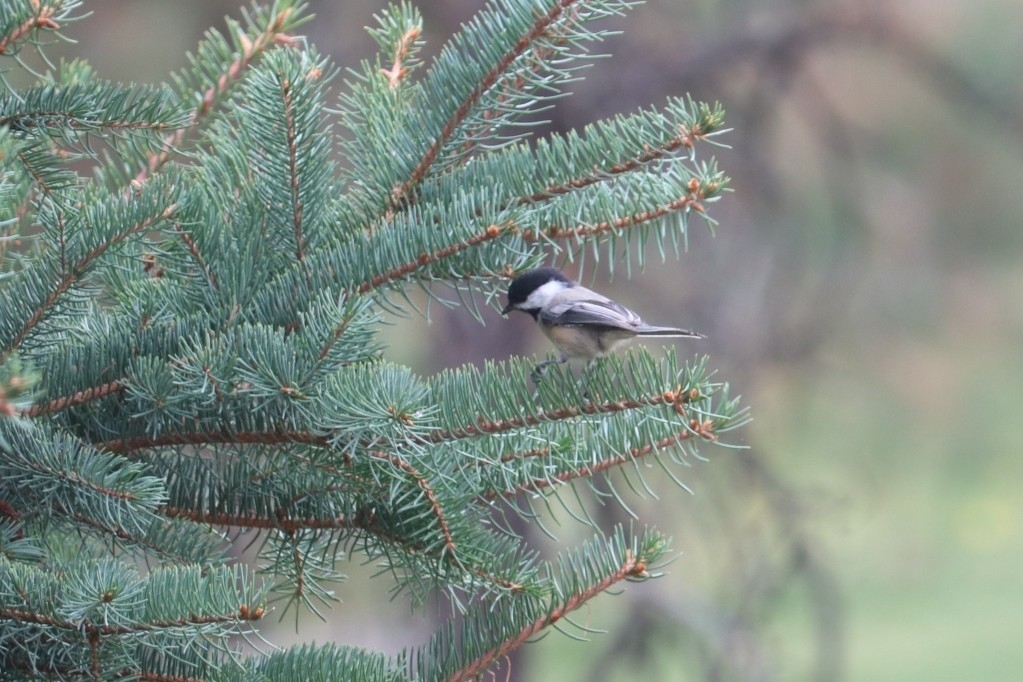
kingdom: Animalia
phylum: Chordata
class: Aves
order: Passeriformes
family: Paridae
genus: Poecile
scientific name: Poecile atricapillus
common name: Black-capped chickadee
